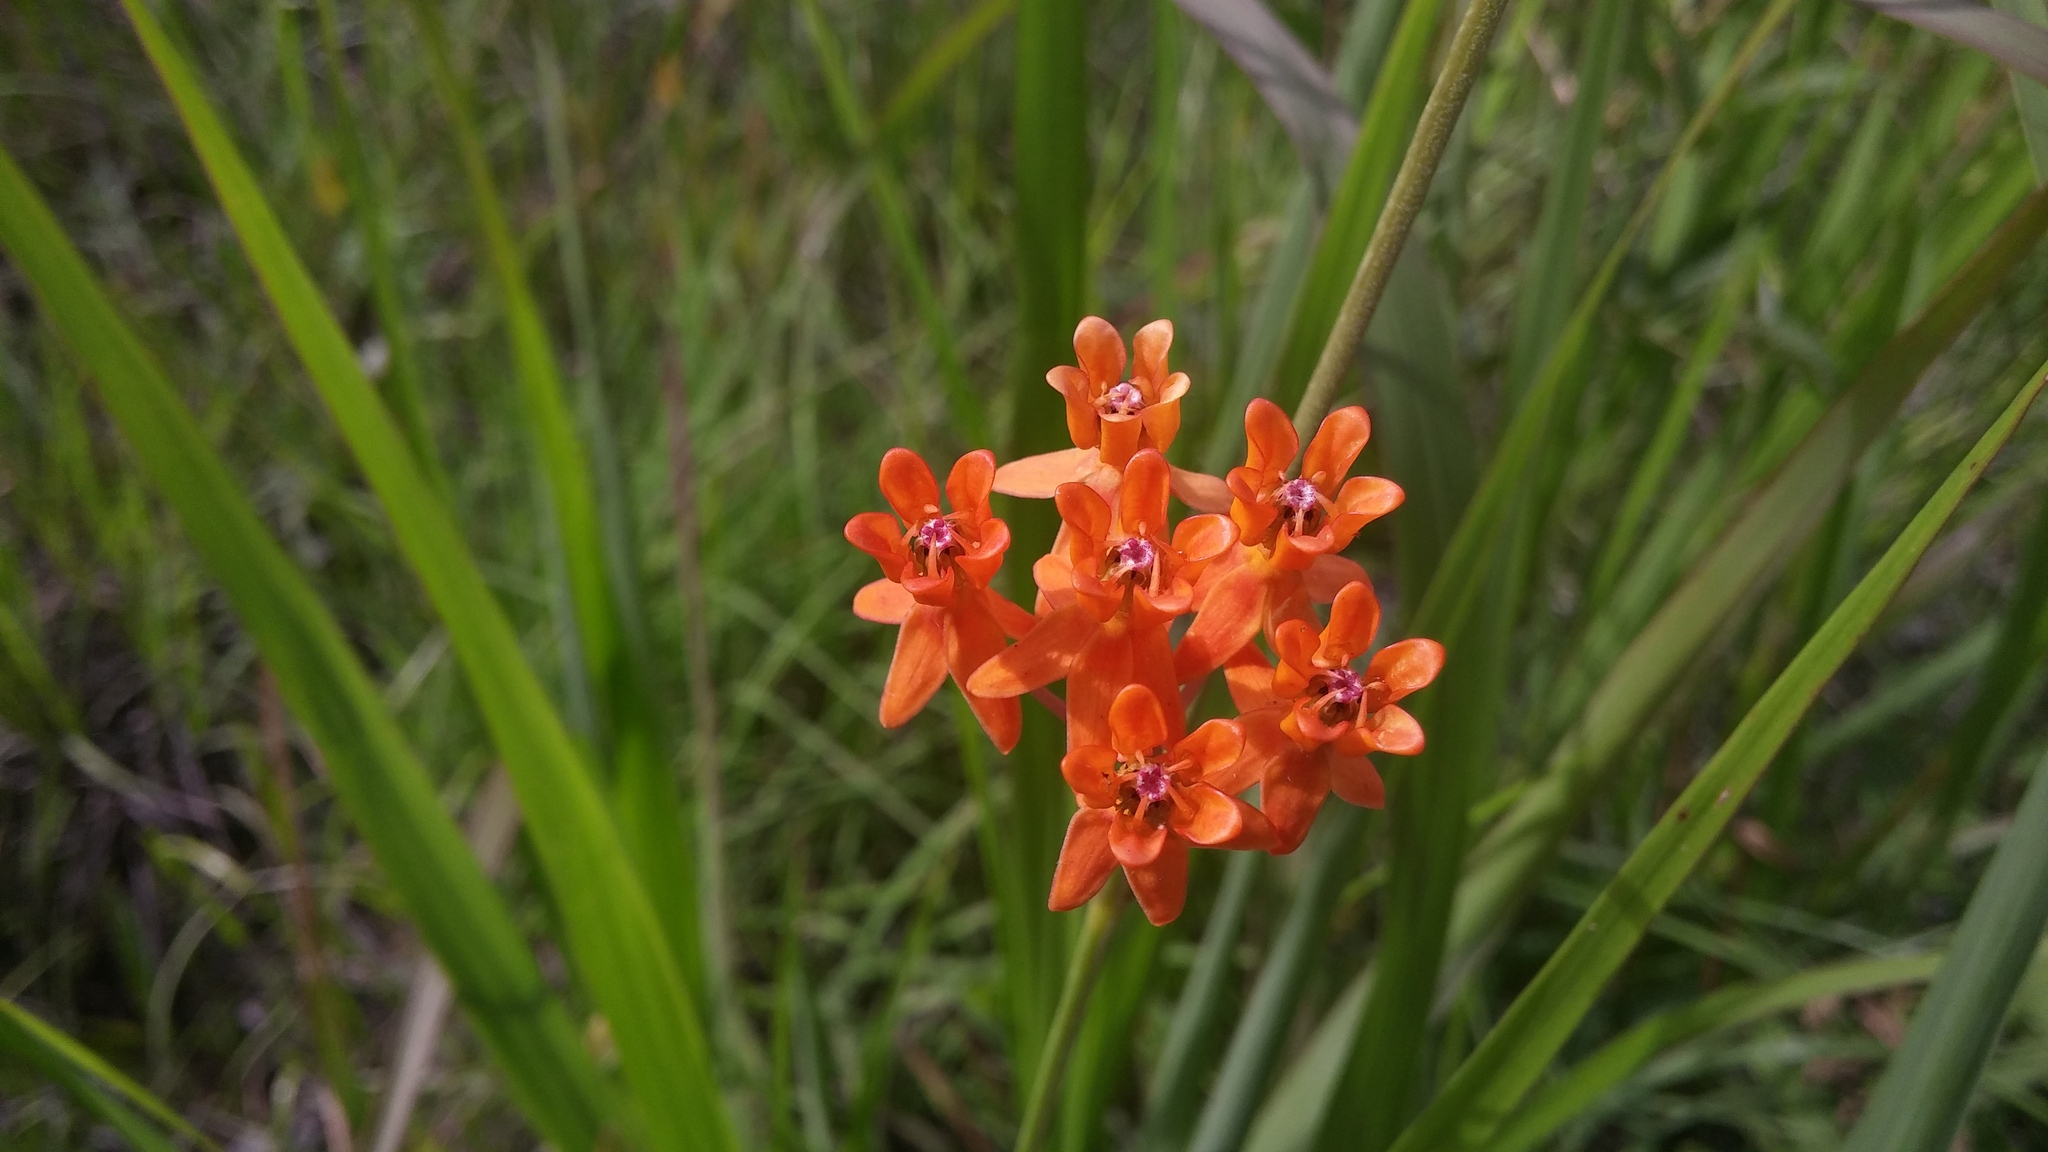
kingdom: Plantae
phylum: Tracheophyta
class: Magnoliopsida
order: Gentianales
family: Apocynaceae
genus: Asclepias
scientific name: Asclepias lanceolata
